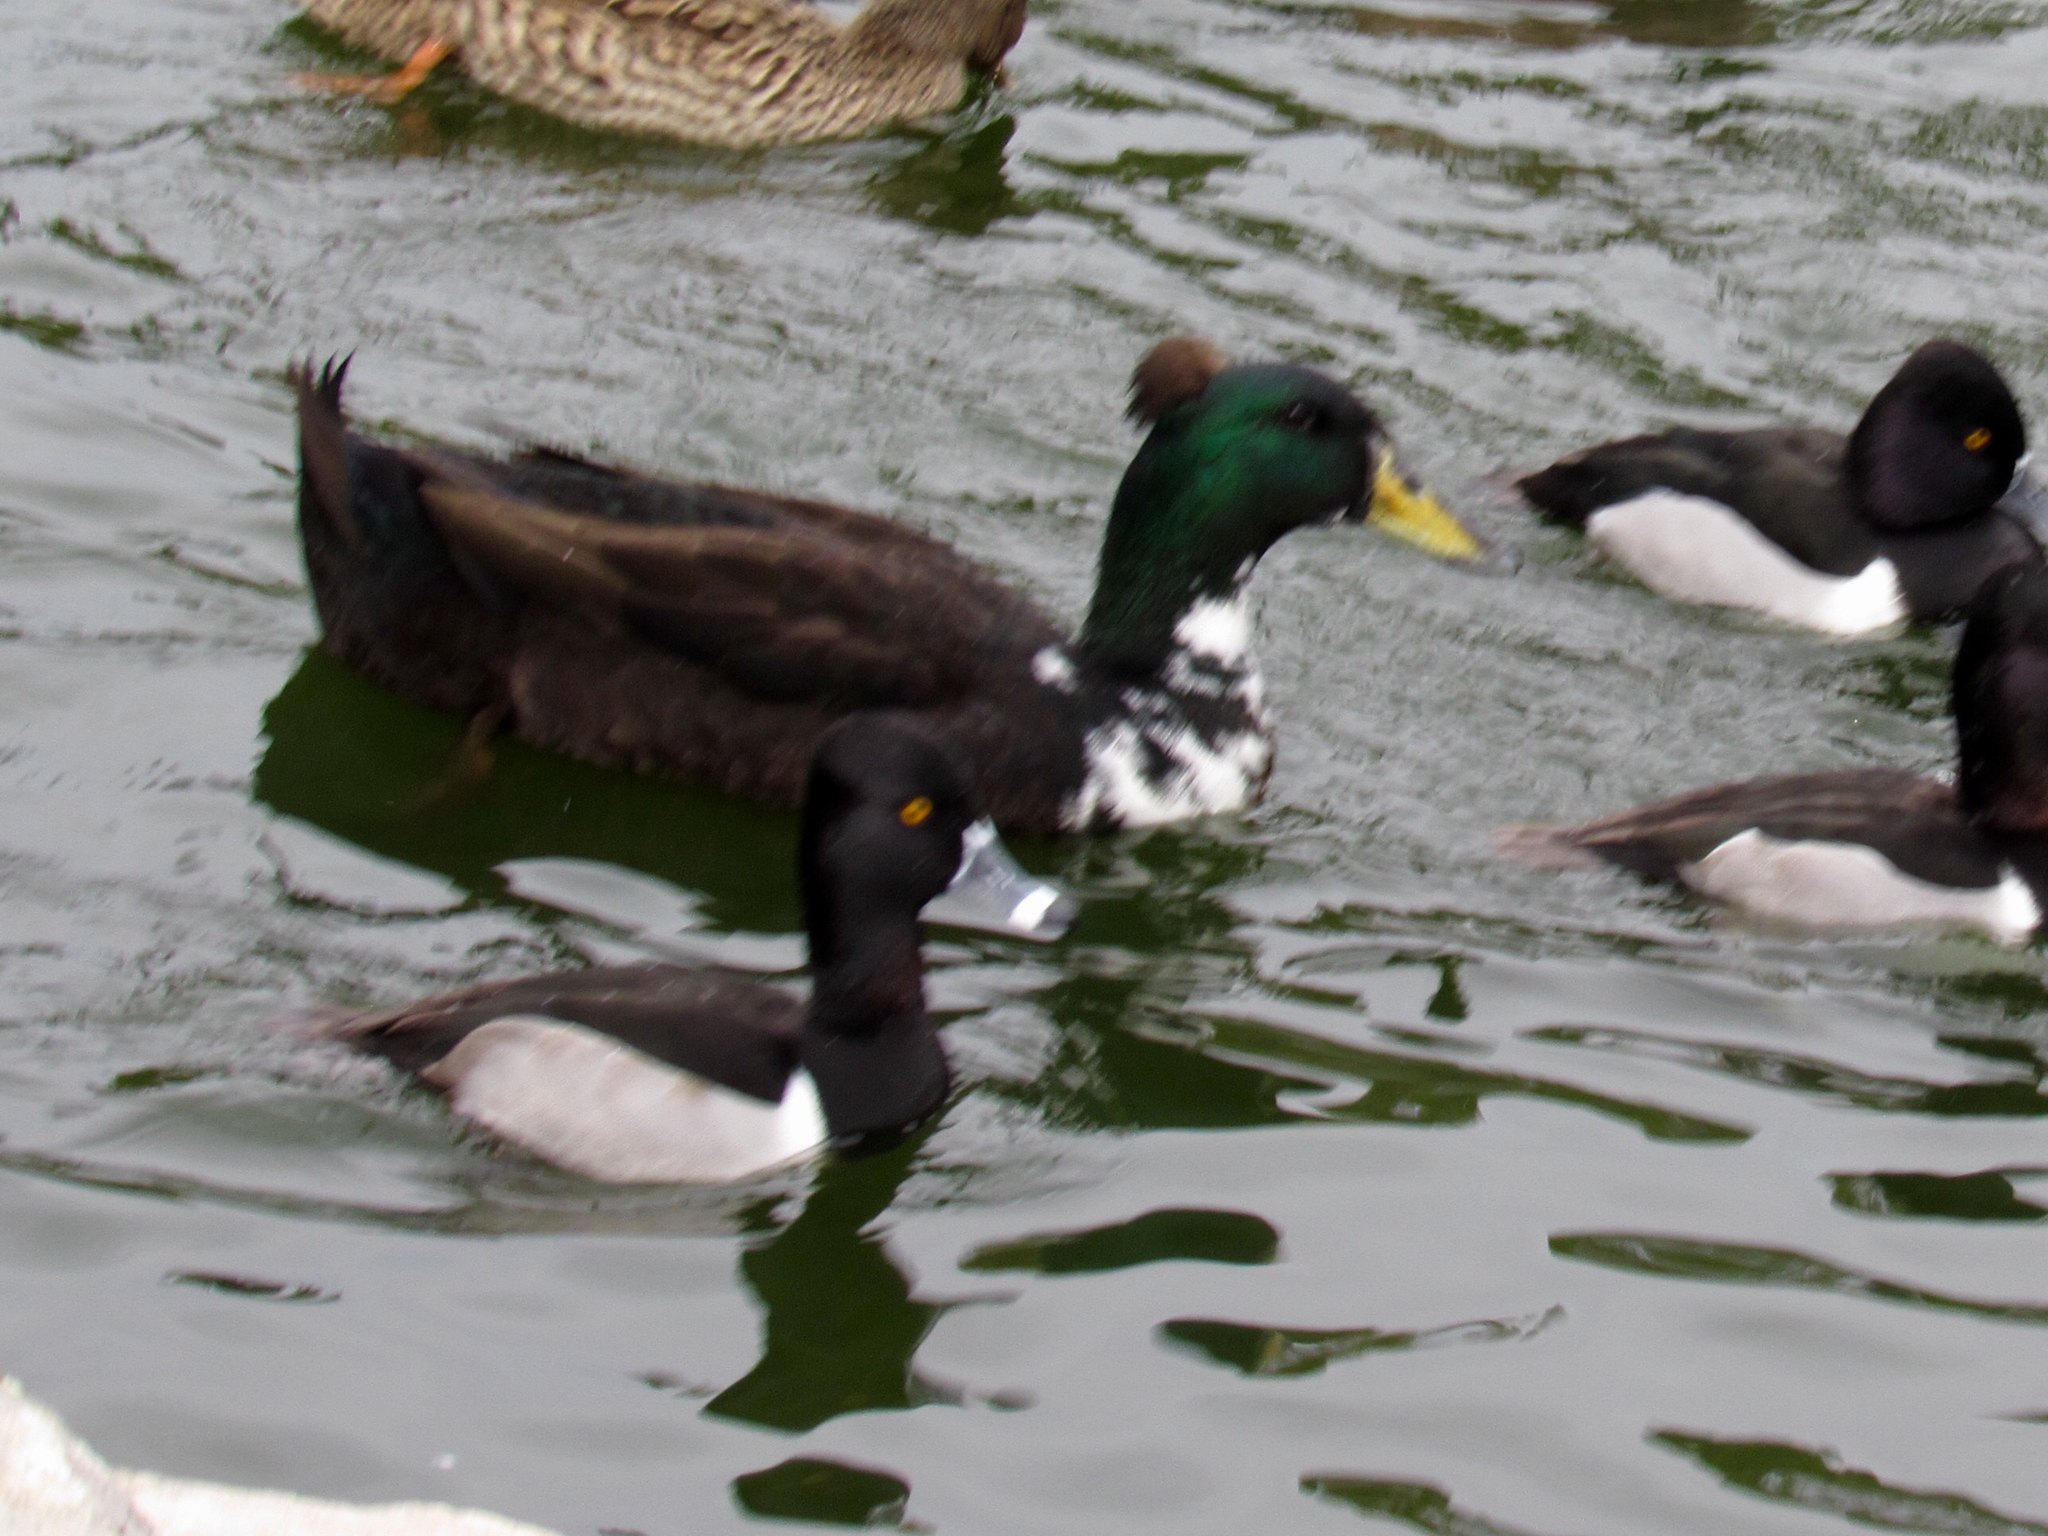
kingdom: Animalia
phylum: Chordata
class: Aves
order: Anseriformes
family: Anatidae
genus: Anas
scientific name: Anas platyrhynchos
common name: Mallard
